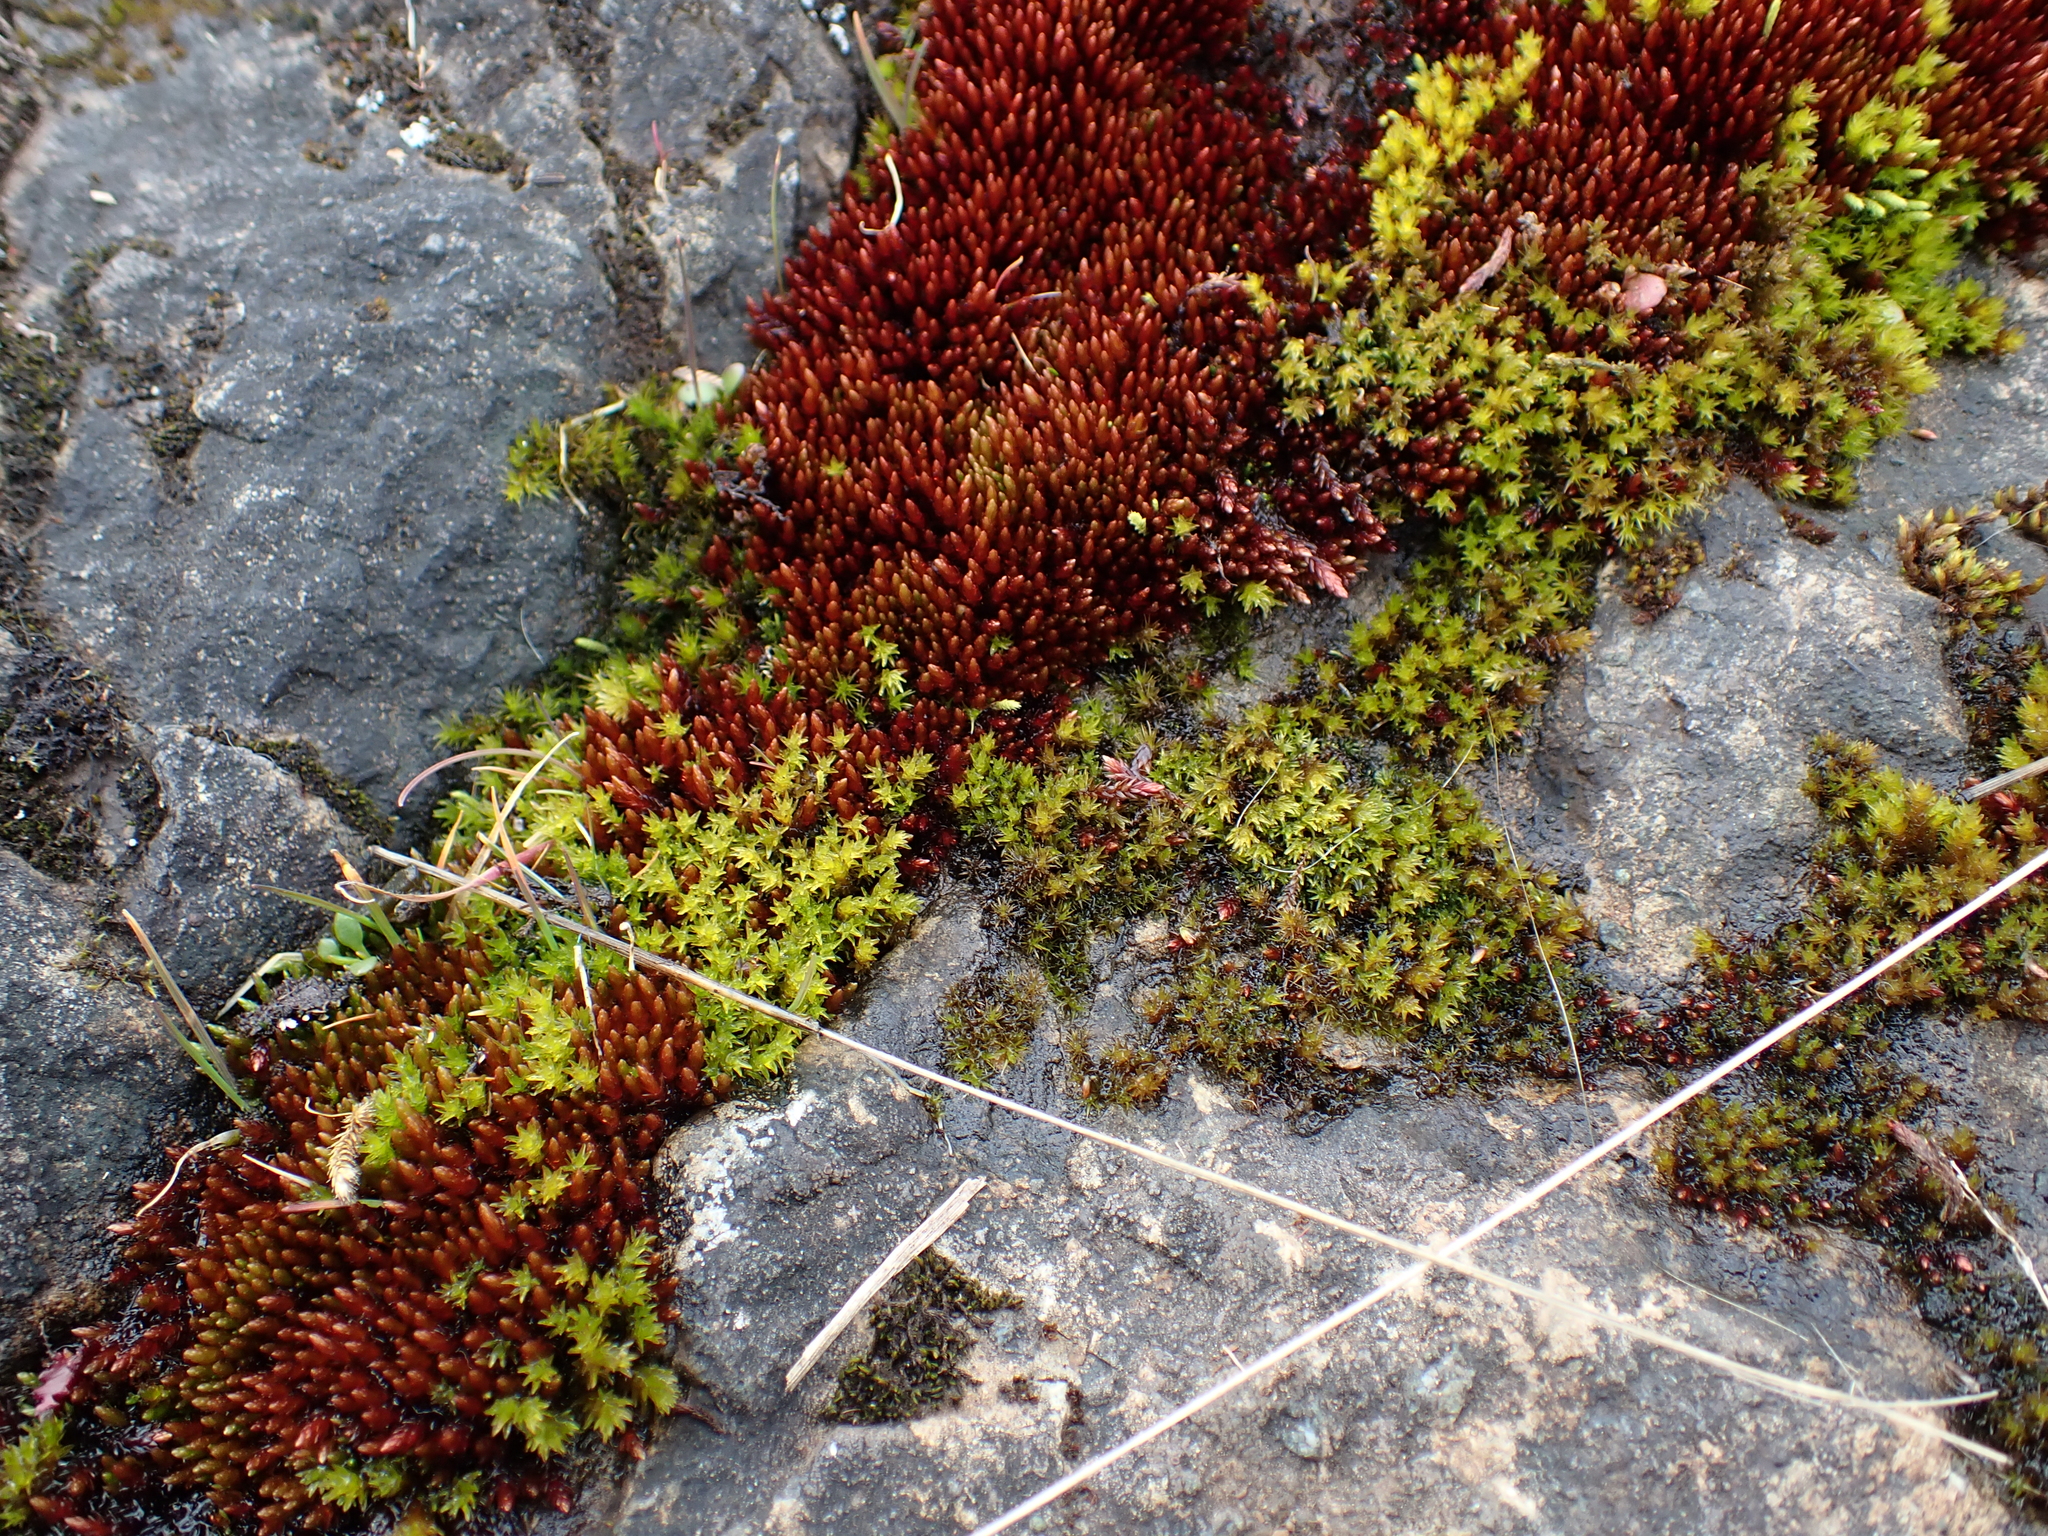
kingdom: Plantae
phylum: Bryophyta
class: Bryopsida
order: Bryales
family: Bryaceae
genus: Imbribryum
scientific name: Imbribryum miniatum
